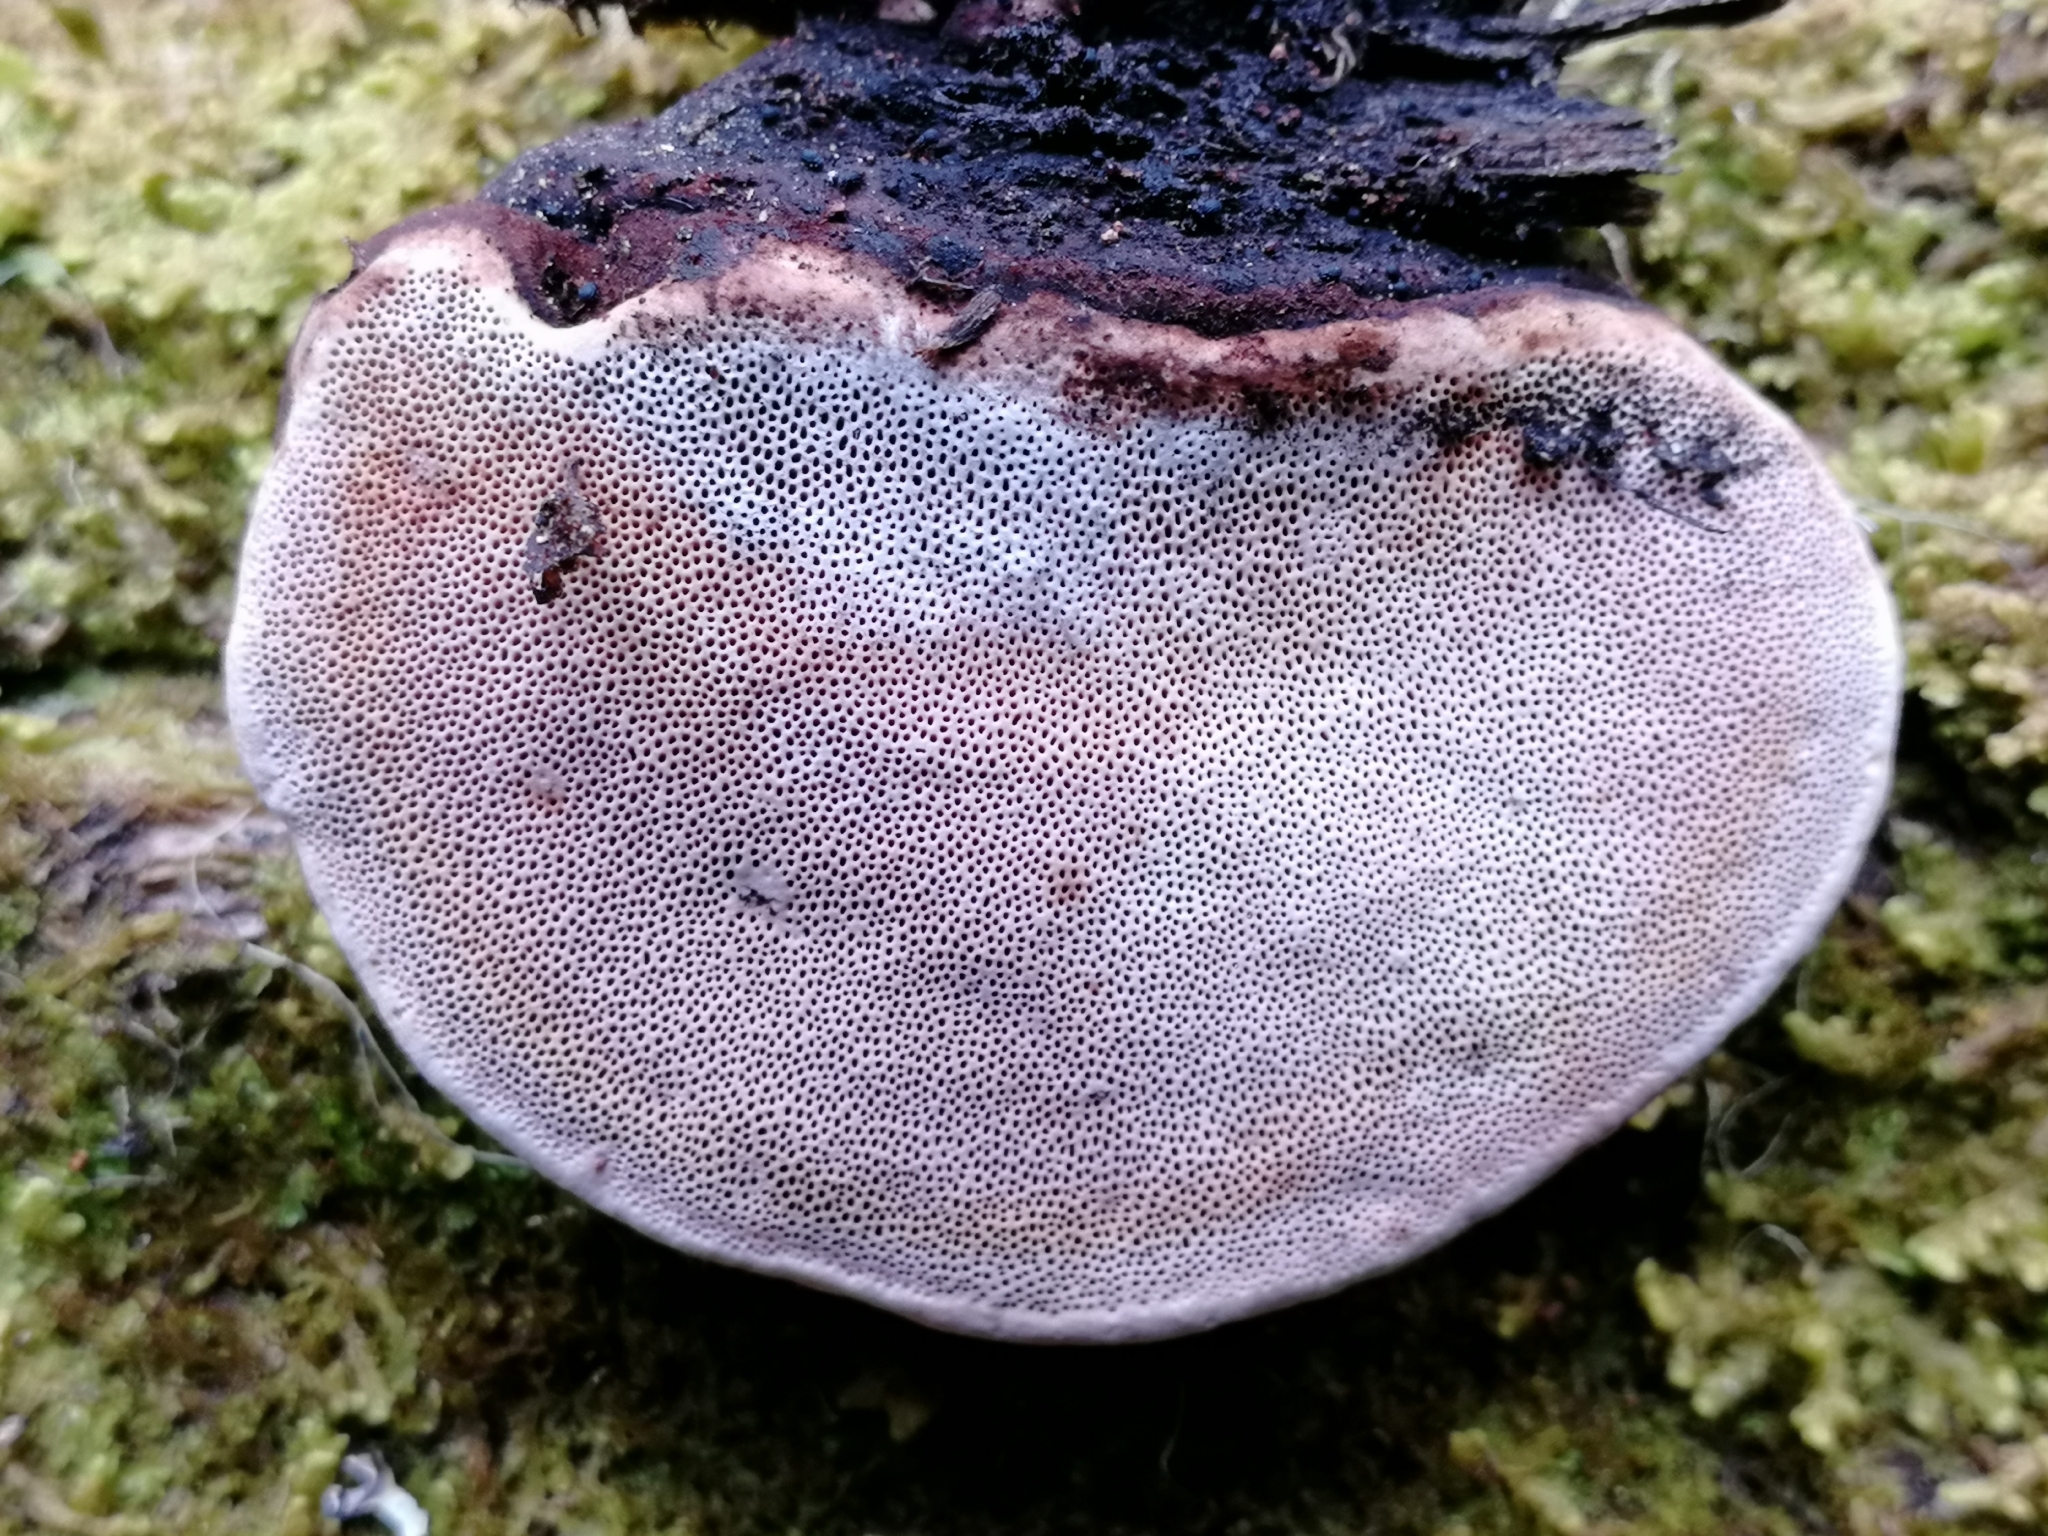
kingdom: Fungi
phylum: Basidiomycota
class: Agaricomycetes
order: Polyporales
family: Fomitopsidaceae
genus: Rhodofomes
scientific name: Rhodofomes roseus
